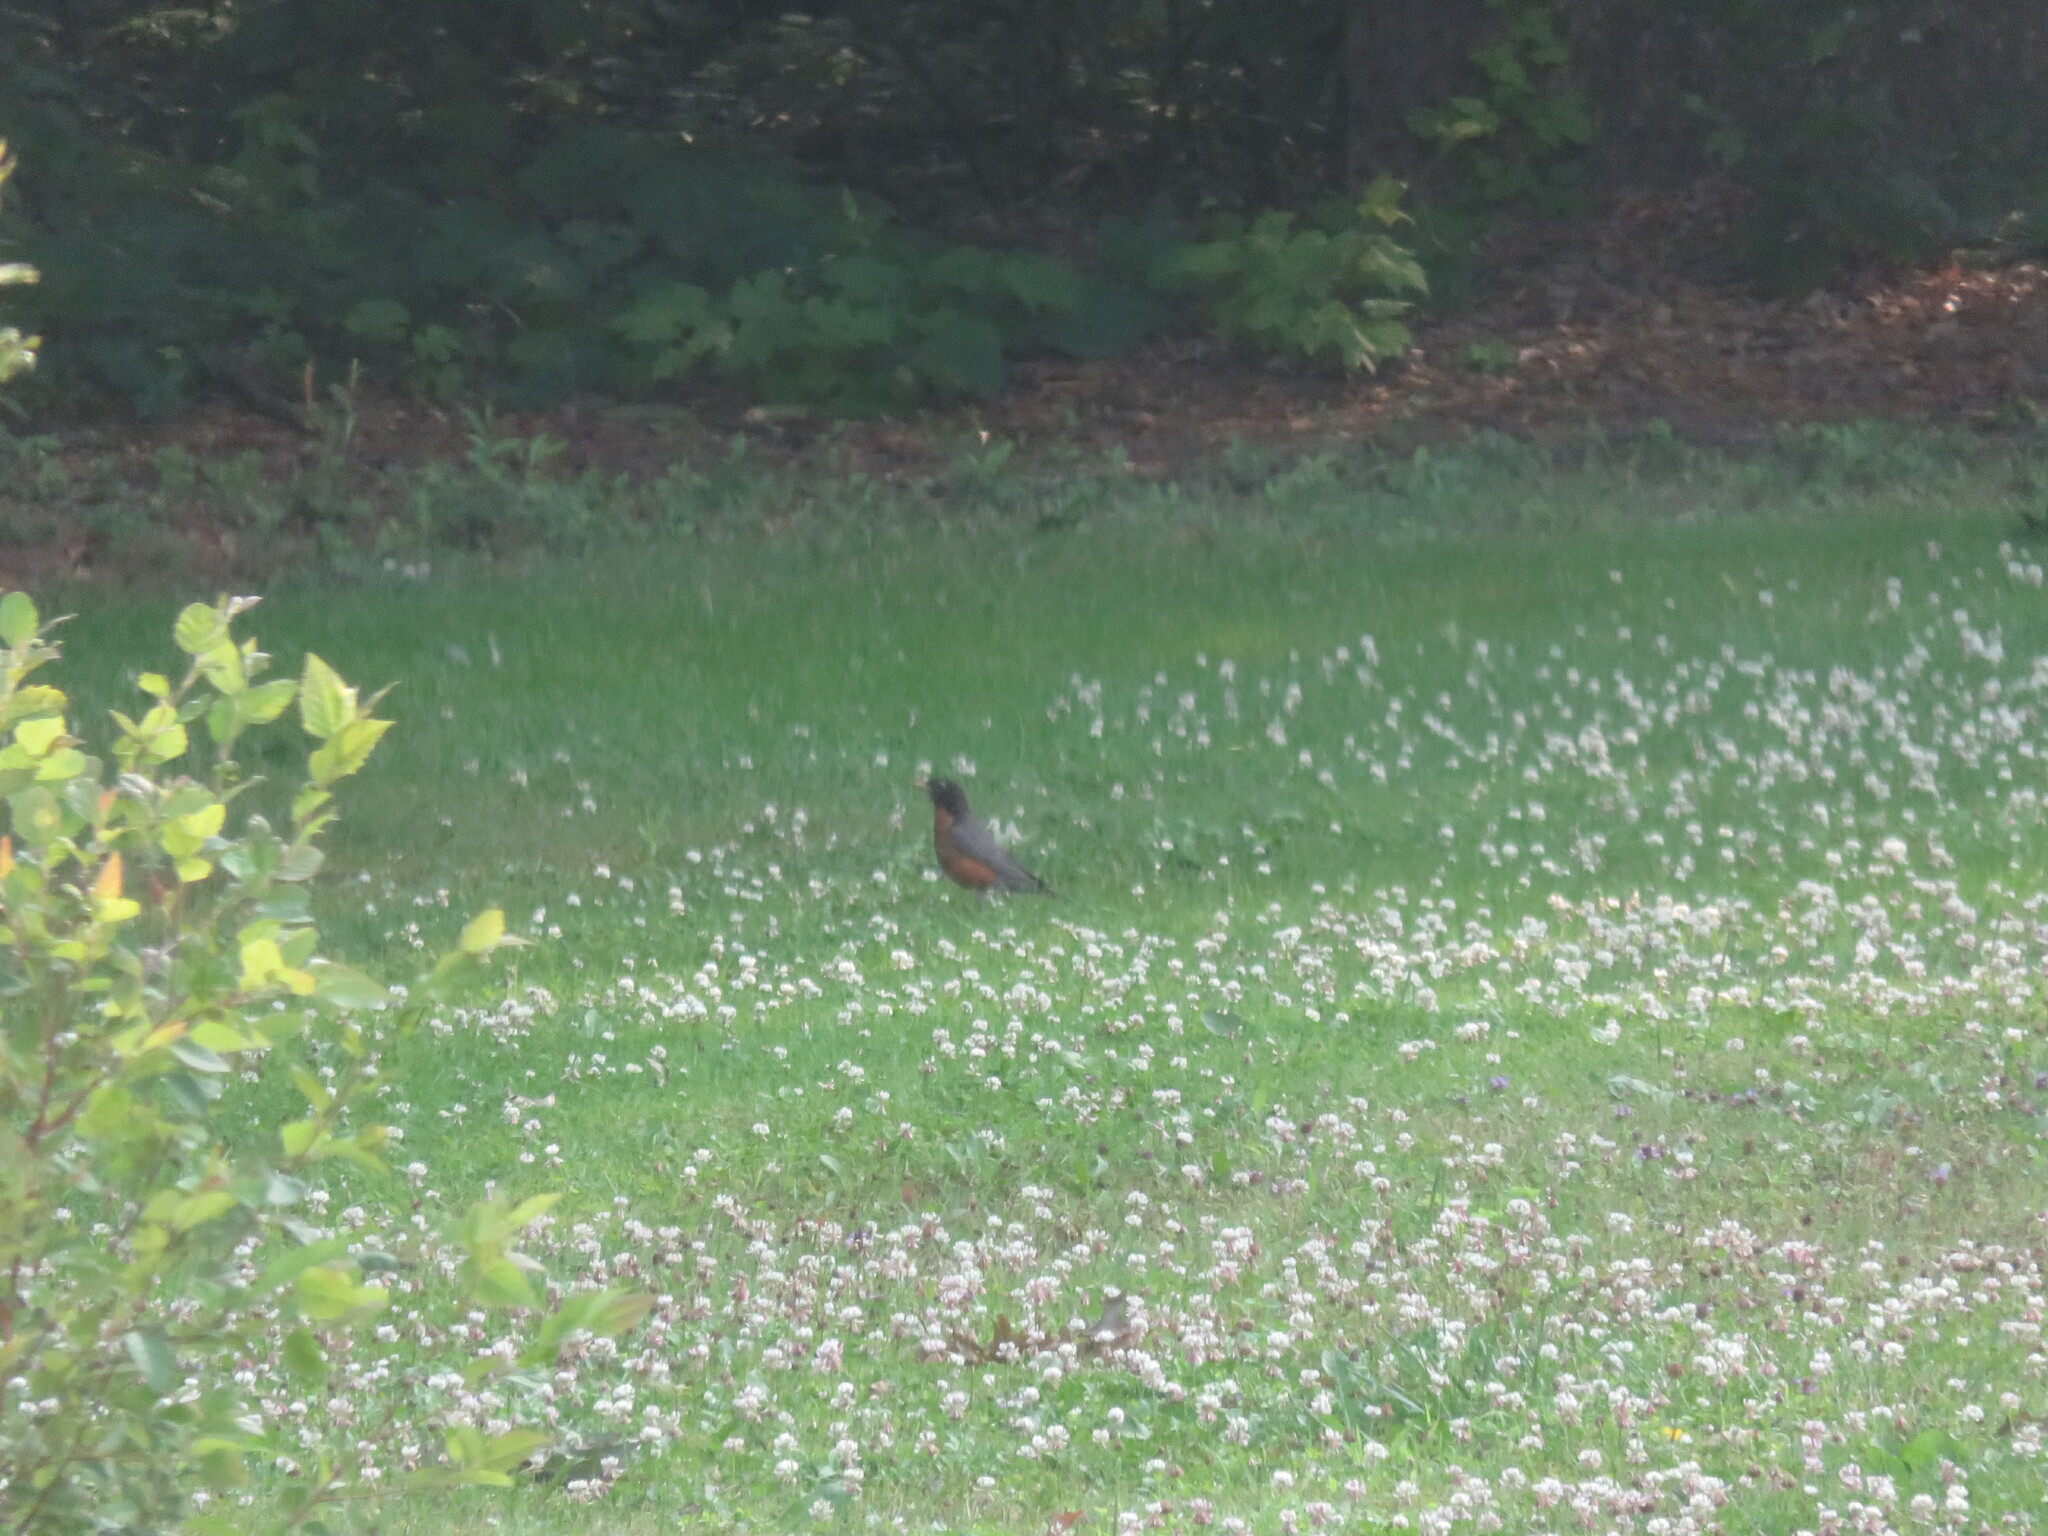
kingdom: Animalia
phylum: Chordata
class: Aves
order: Passeriformes
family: Turdidae
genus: Turdus
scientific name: Turdus migratorius
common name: American robin
